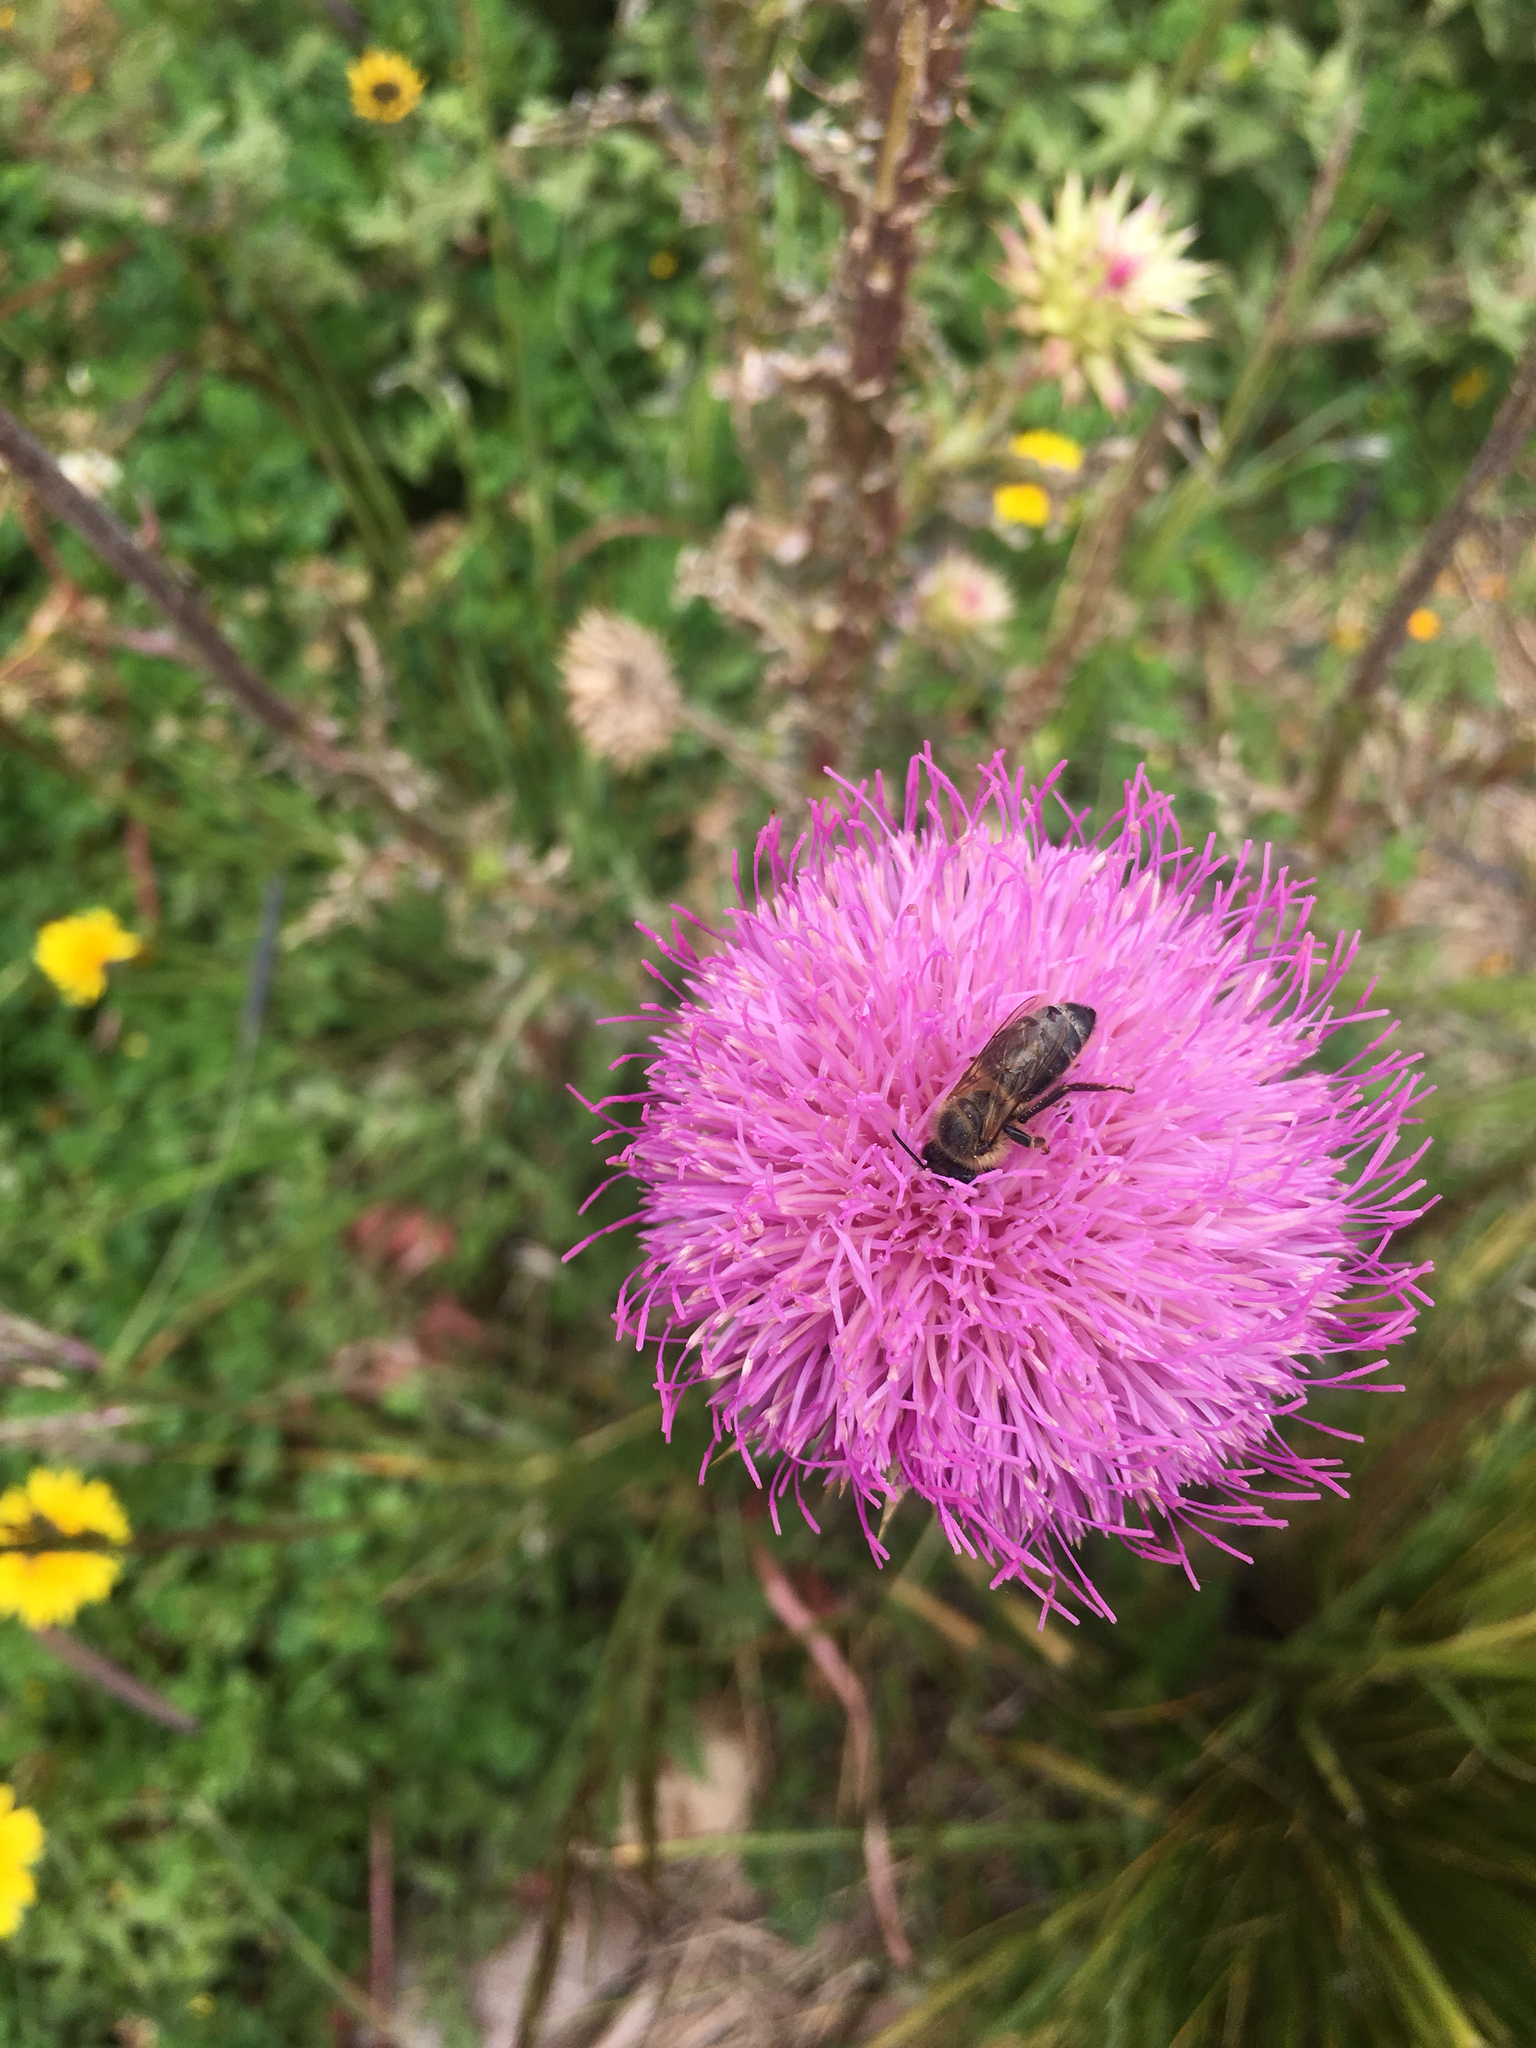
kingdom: Animalia
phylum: Arthropoda
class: Insecta
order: Hymenoptera
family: Apidae
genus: Apis
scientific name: Apis mellifera
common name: Honey bee
